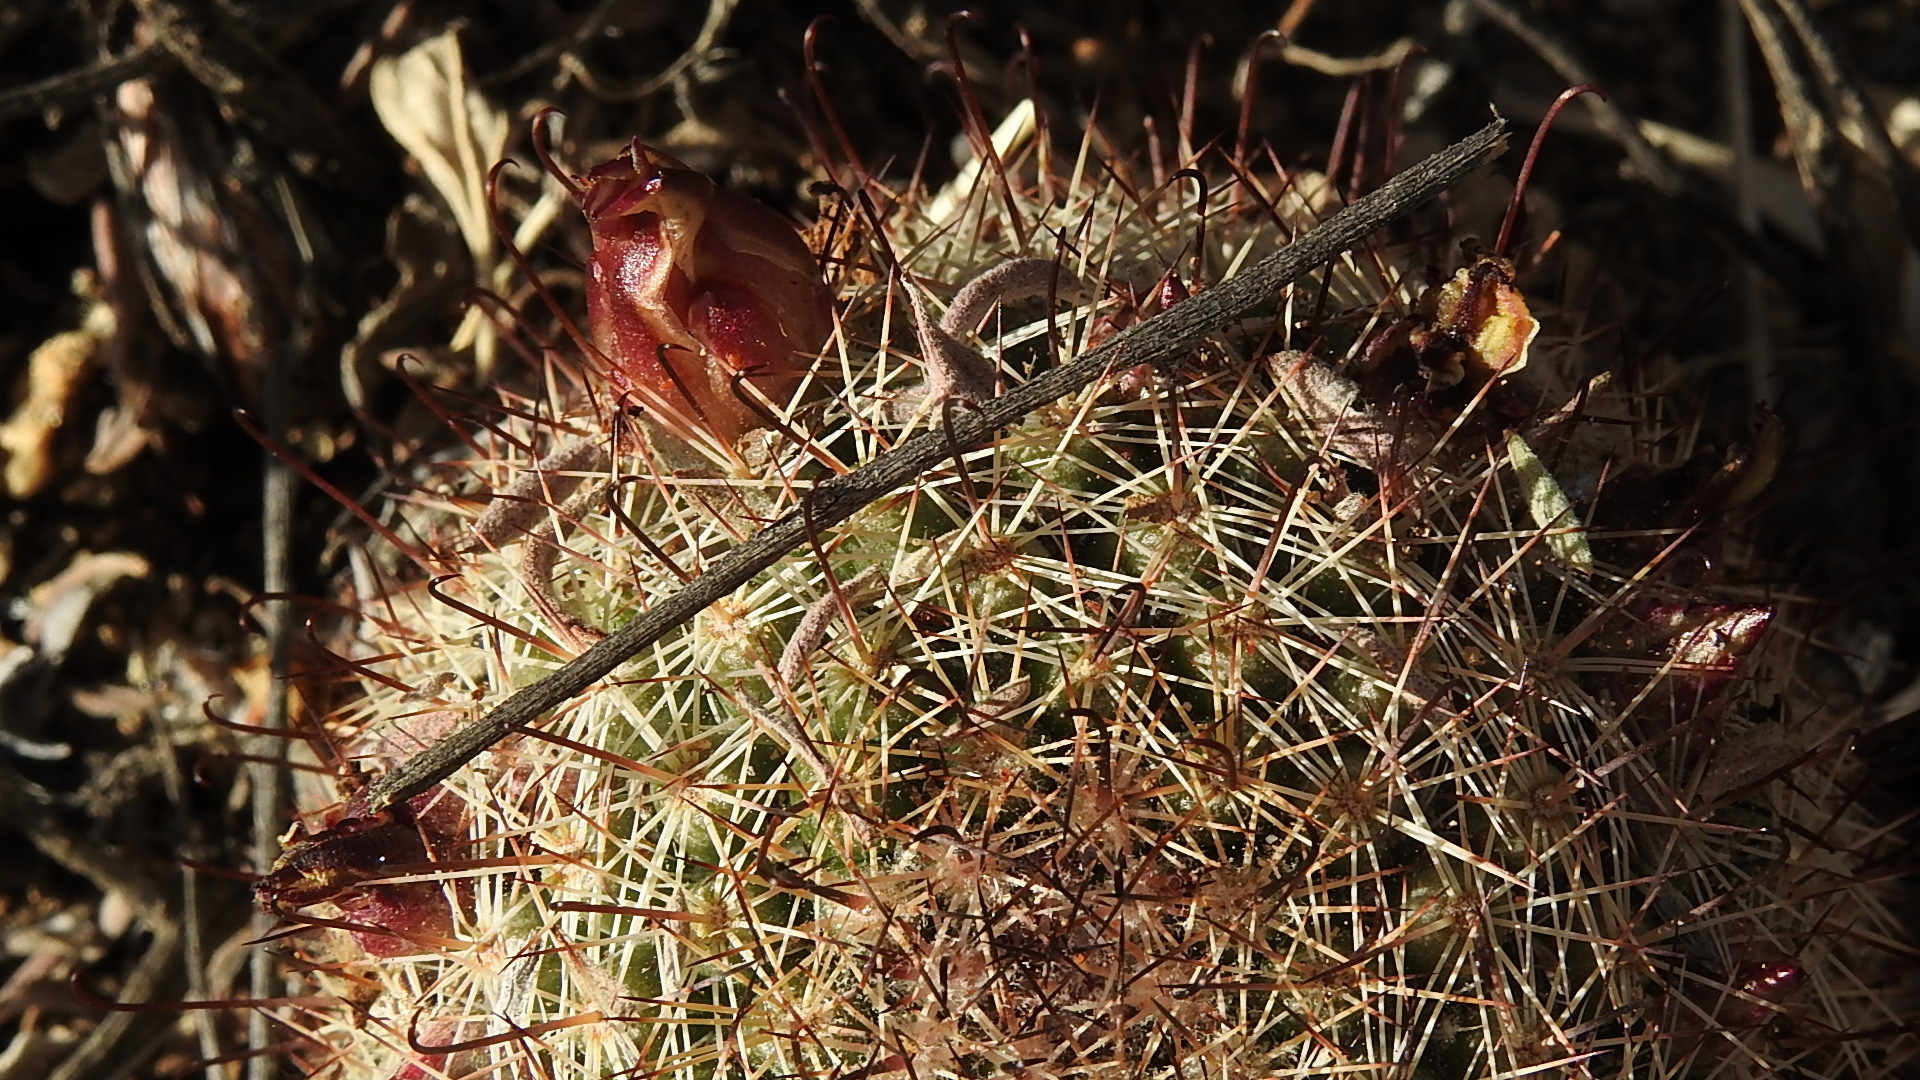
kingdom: Plantae
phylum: Tracheophyta
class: Magnoliopsida
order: Caryophyllales
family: Cactaceae
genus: Cochemiea
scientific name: Cochemiea dioica
